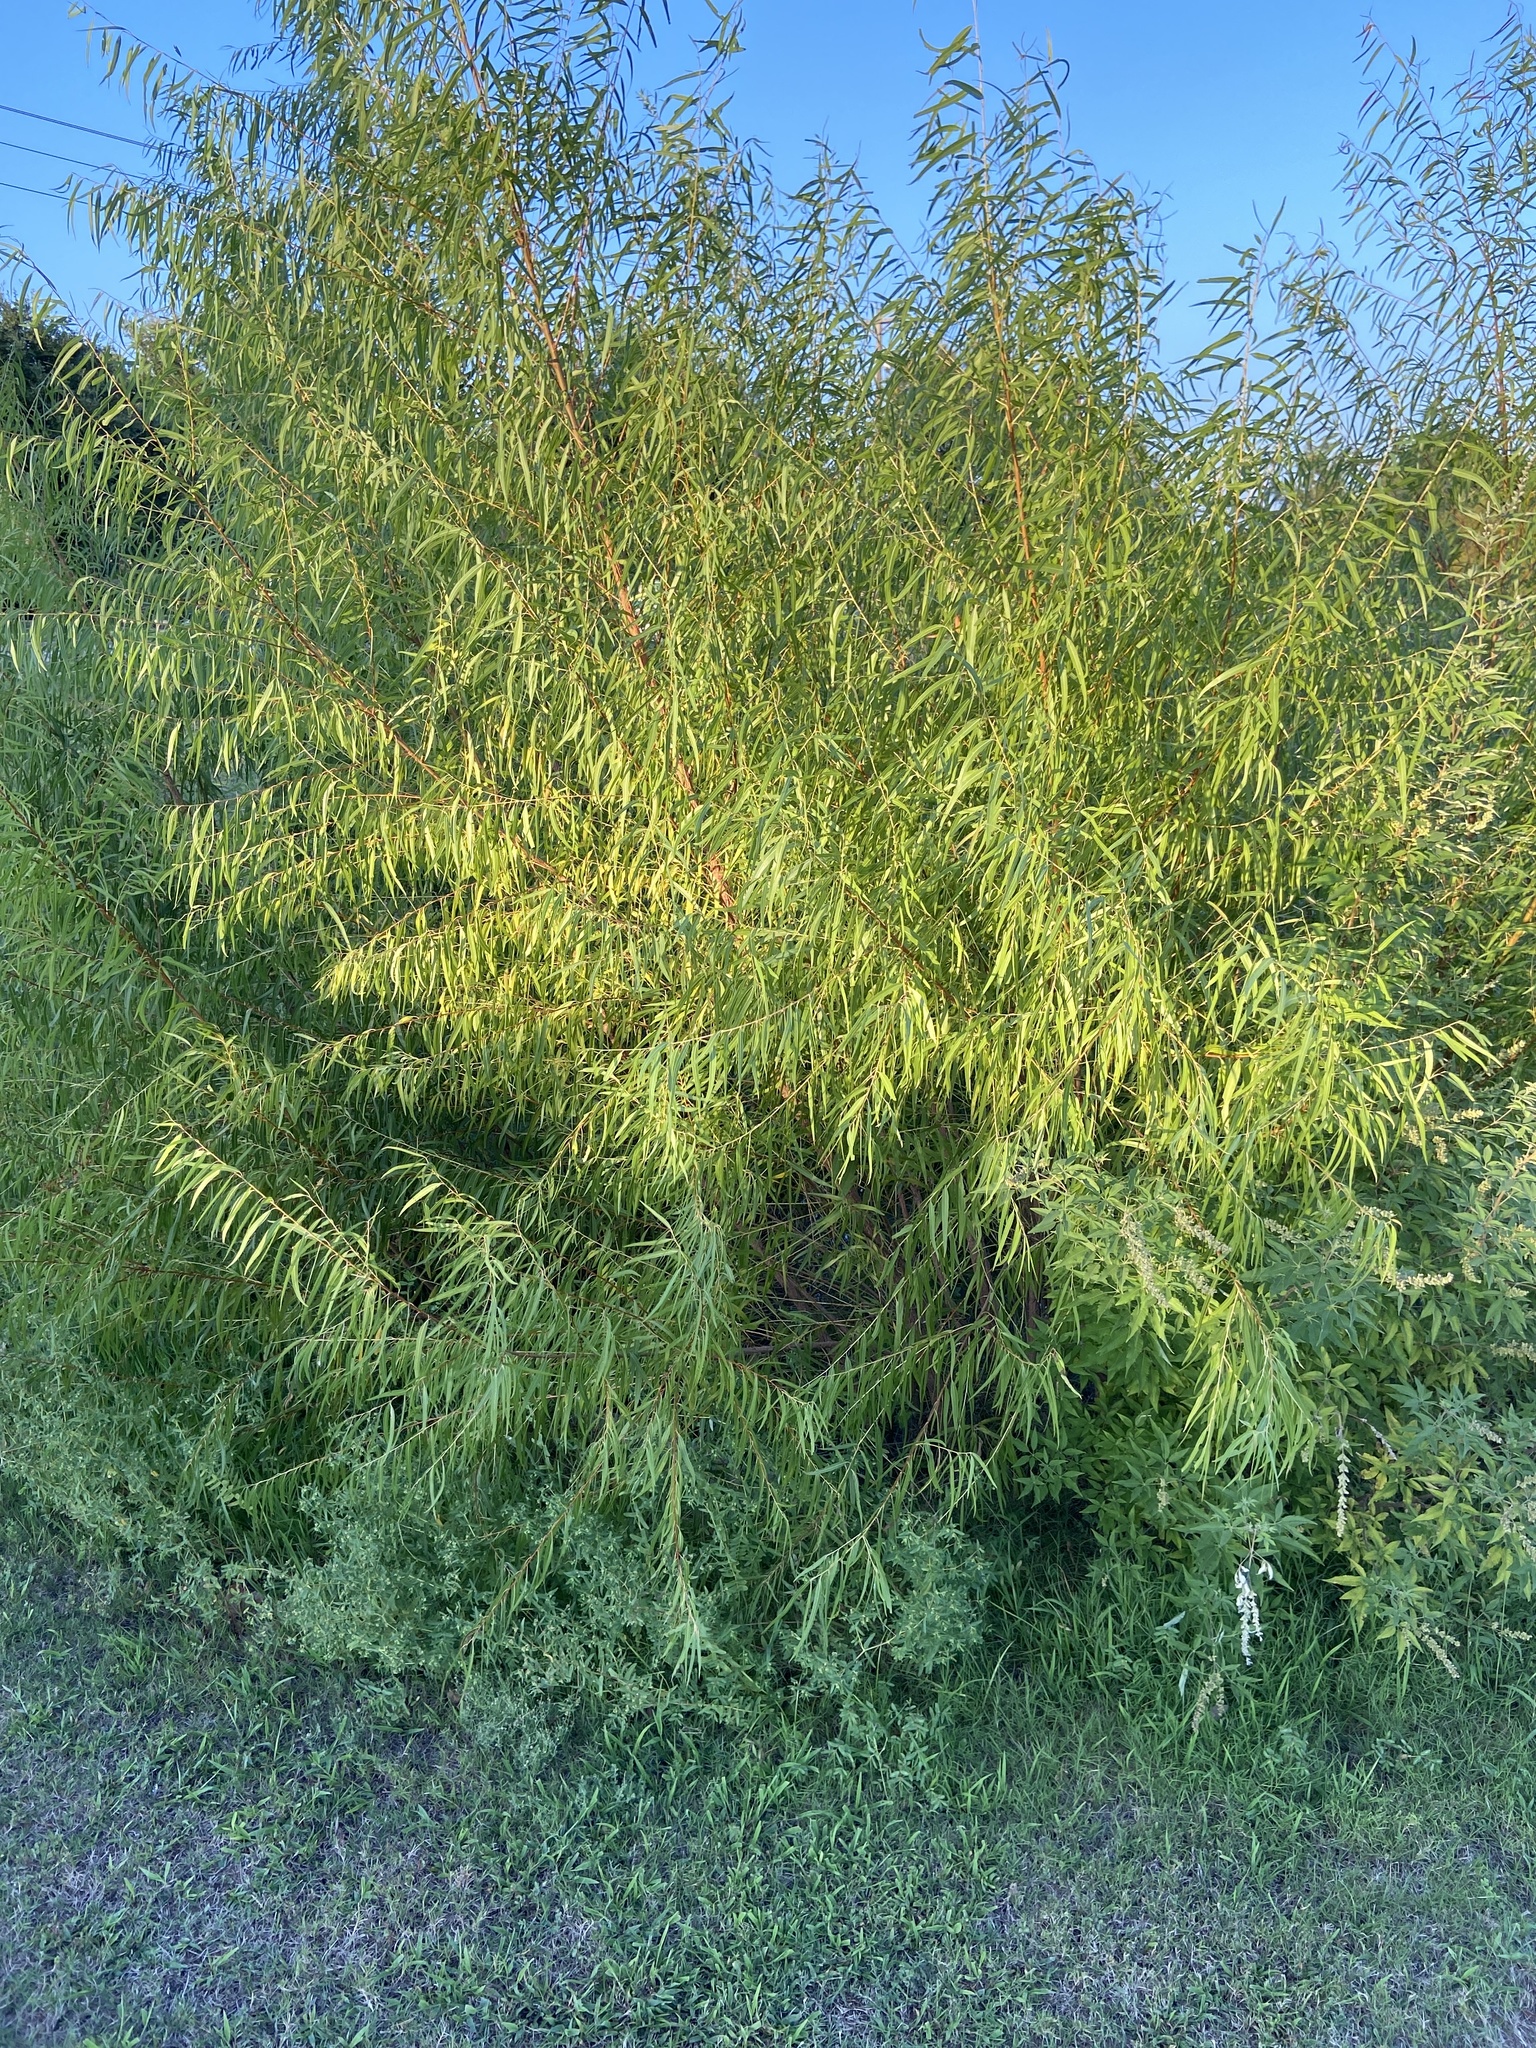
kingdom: Plantae
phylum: Tracheophyta
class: Magnoliopsida
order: Malpighiales
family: Salicaceae
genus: Salix
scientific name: Salix nigra
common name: Black willow
